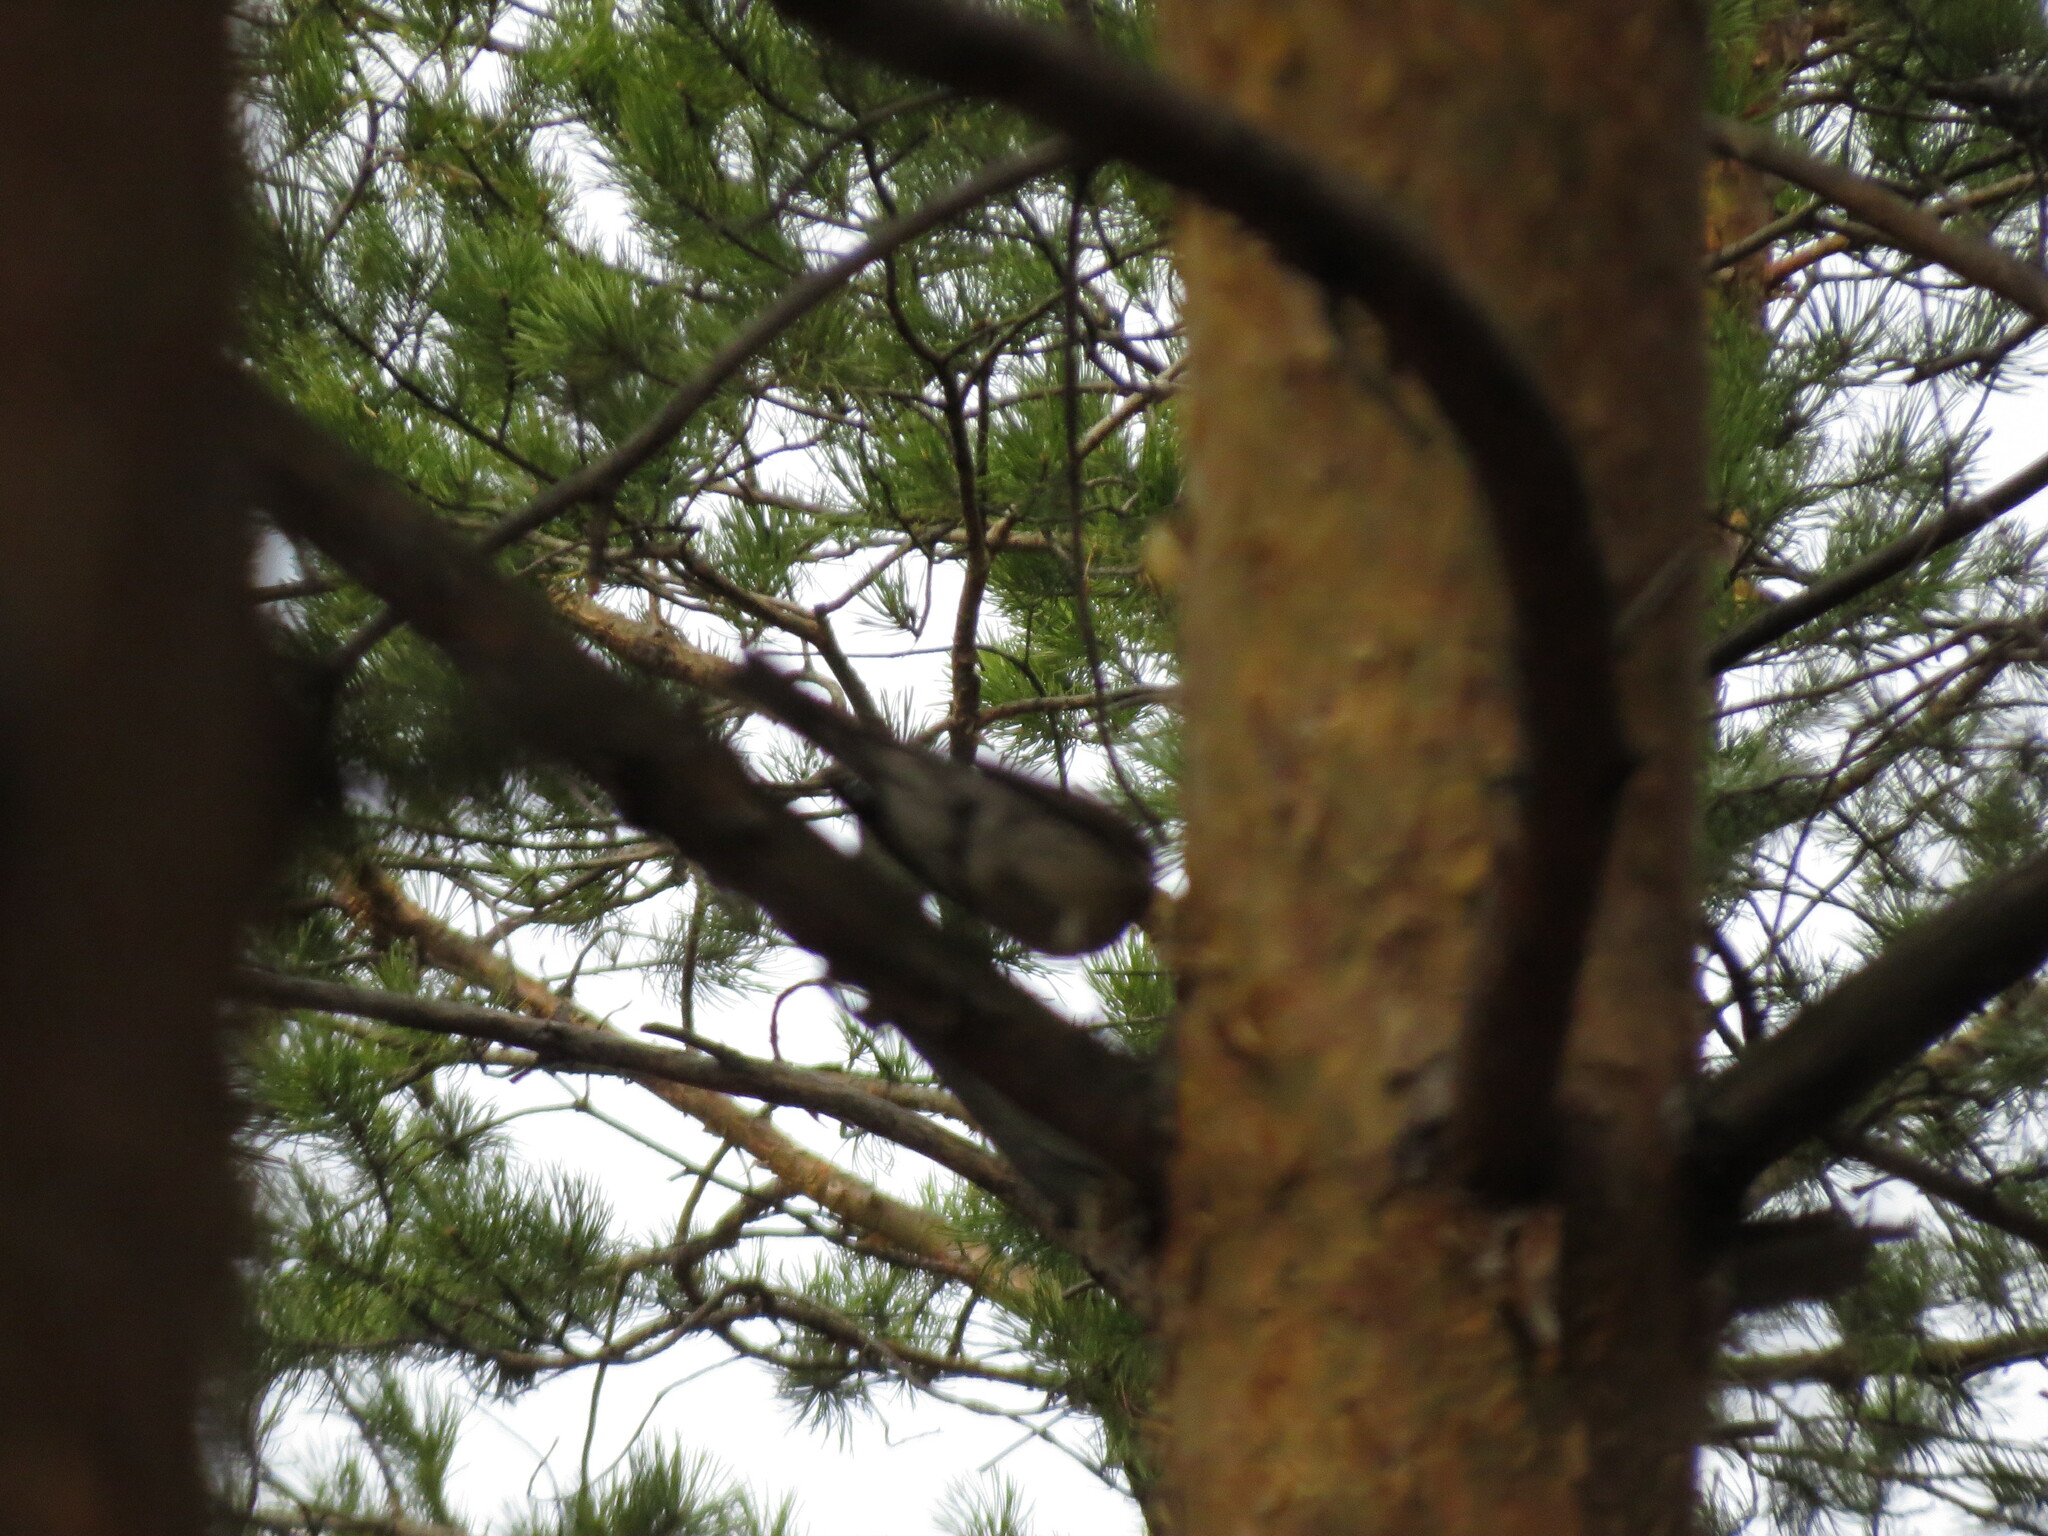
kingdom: Animalia
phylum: Chordata
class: Aves
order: Passeriformes
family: Turdidae
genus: Turdus
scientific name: Turdus pilaris
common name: Fieldfare
